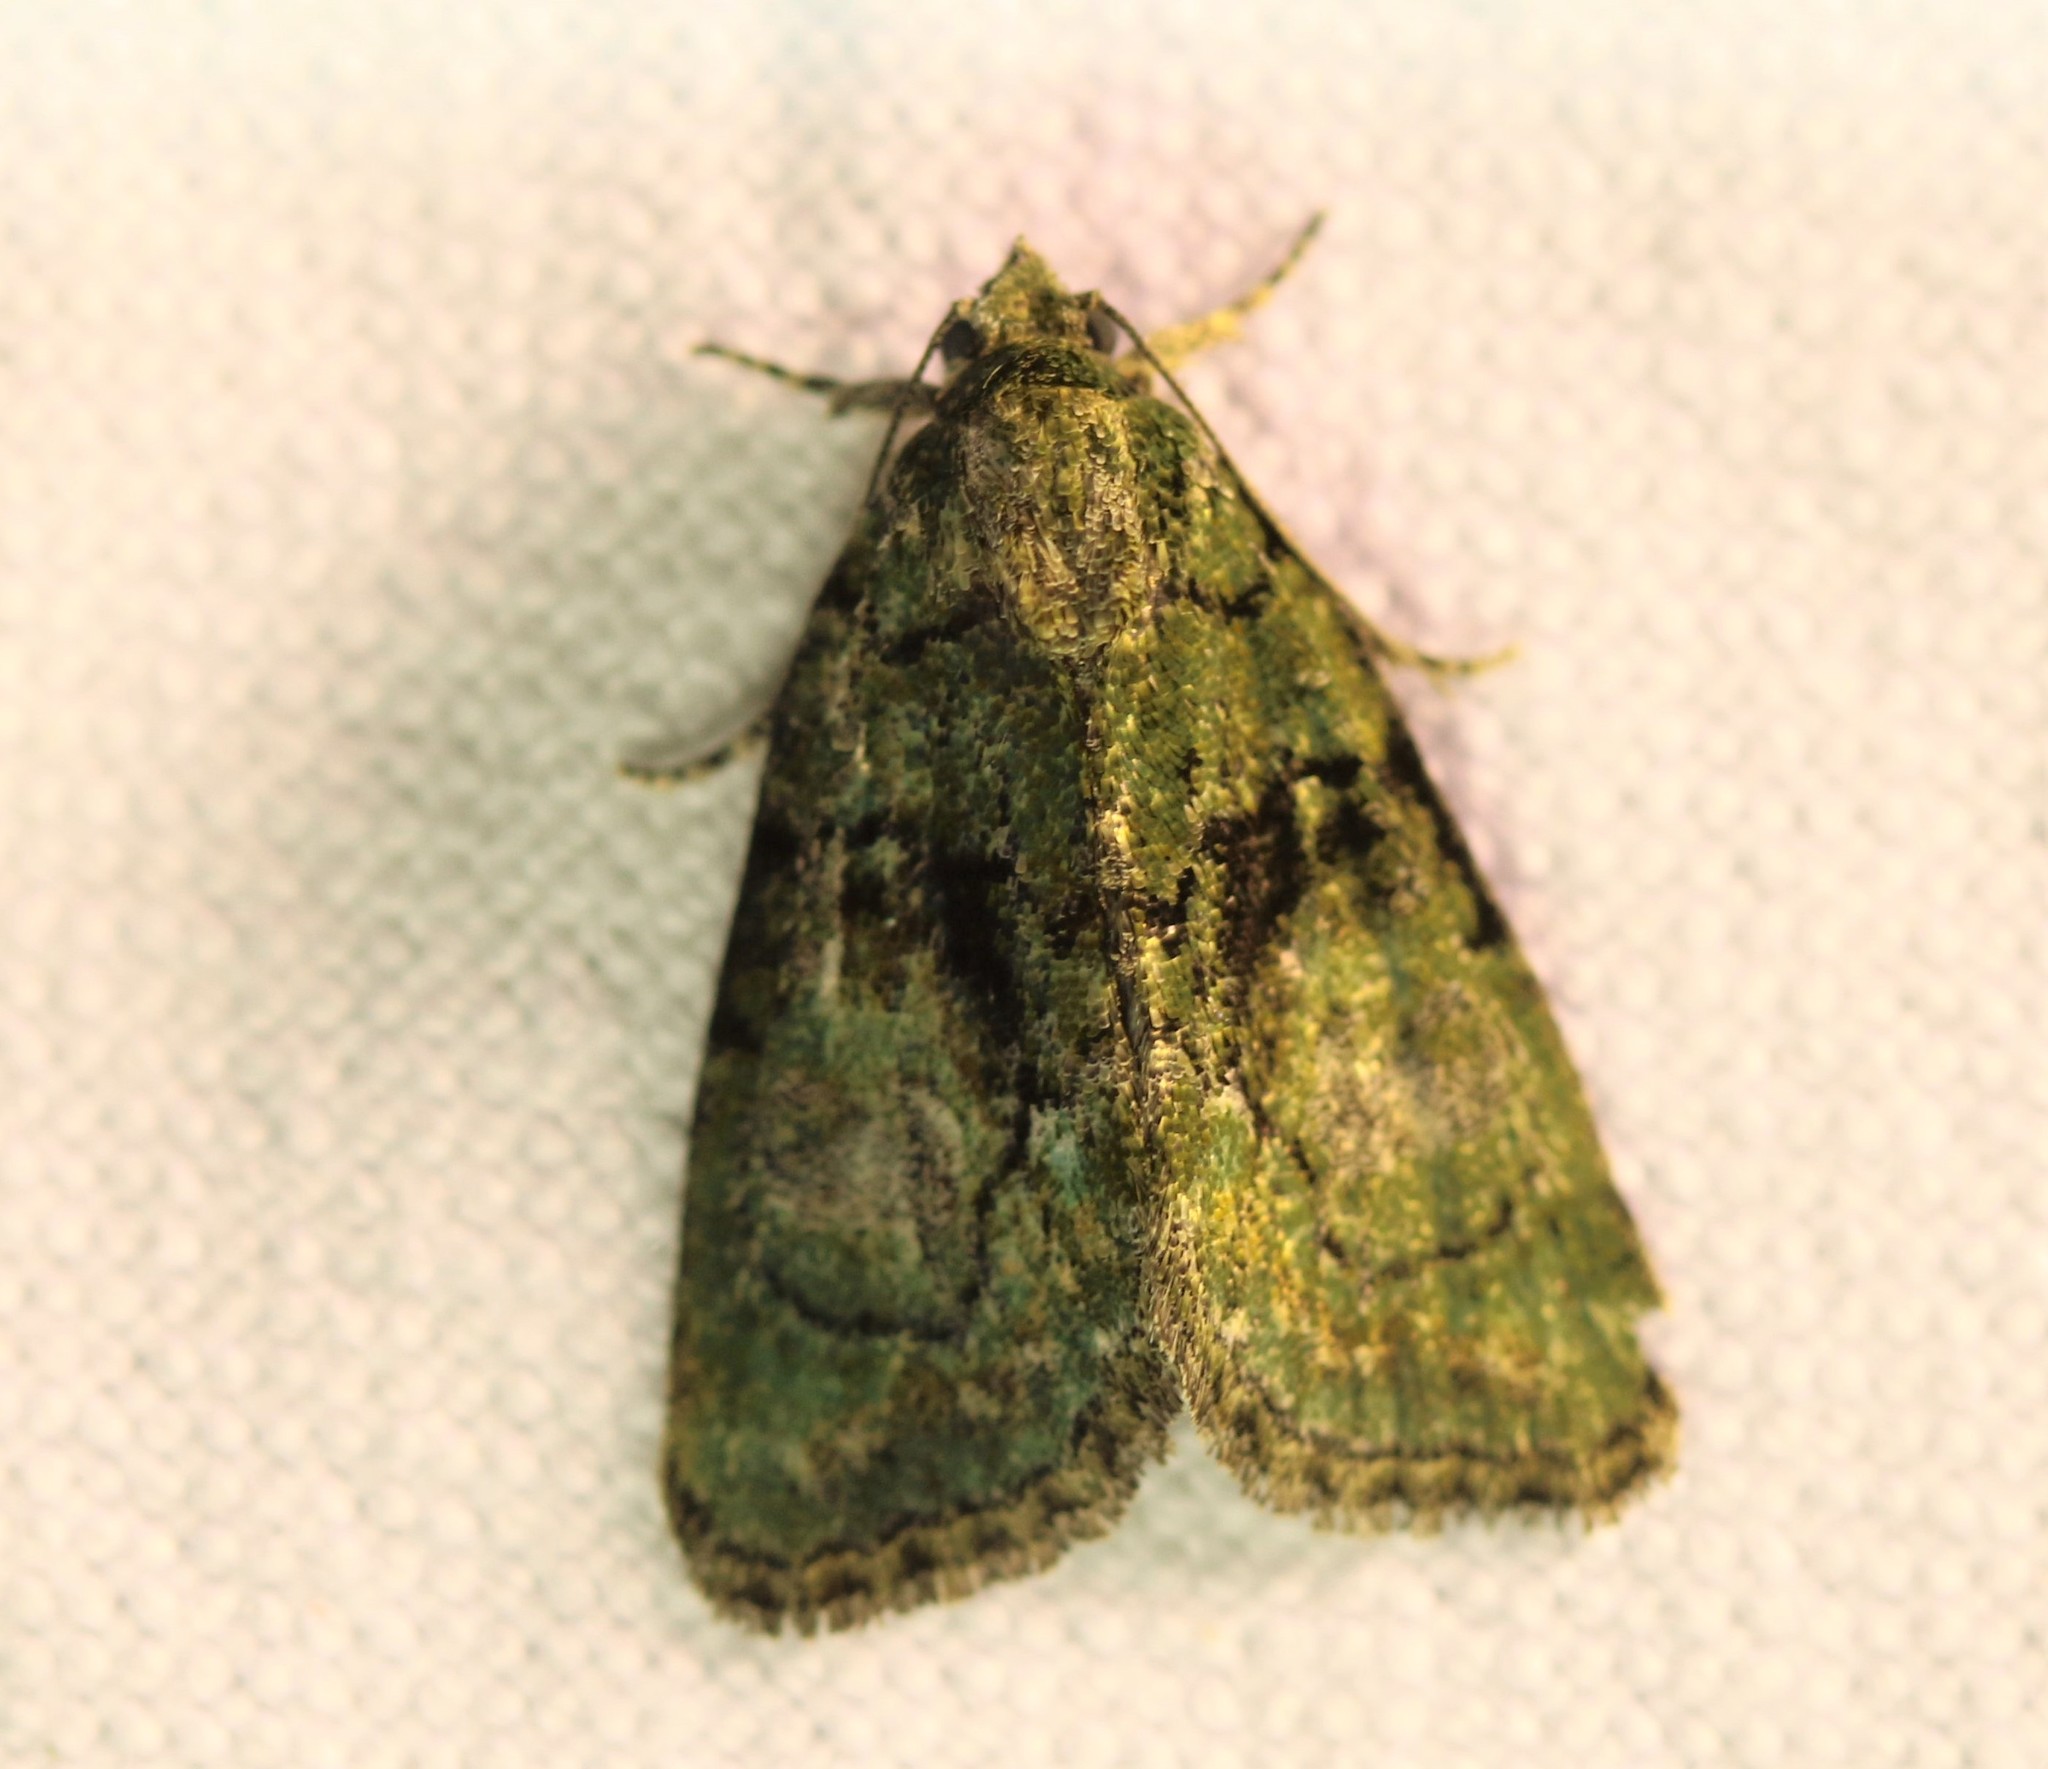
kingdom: Animalia
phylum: Arthropoda
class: Insecta
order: Lepidoptera
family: Noctuidae
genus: Cryphia
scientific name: Cryphia algae
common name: Tree-lichen beauty
